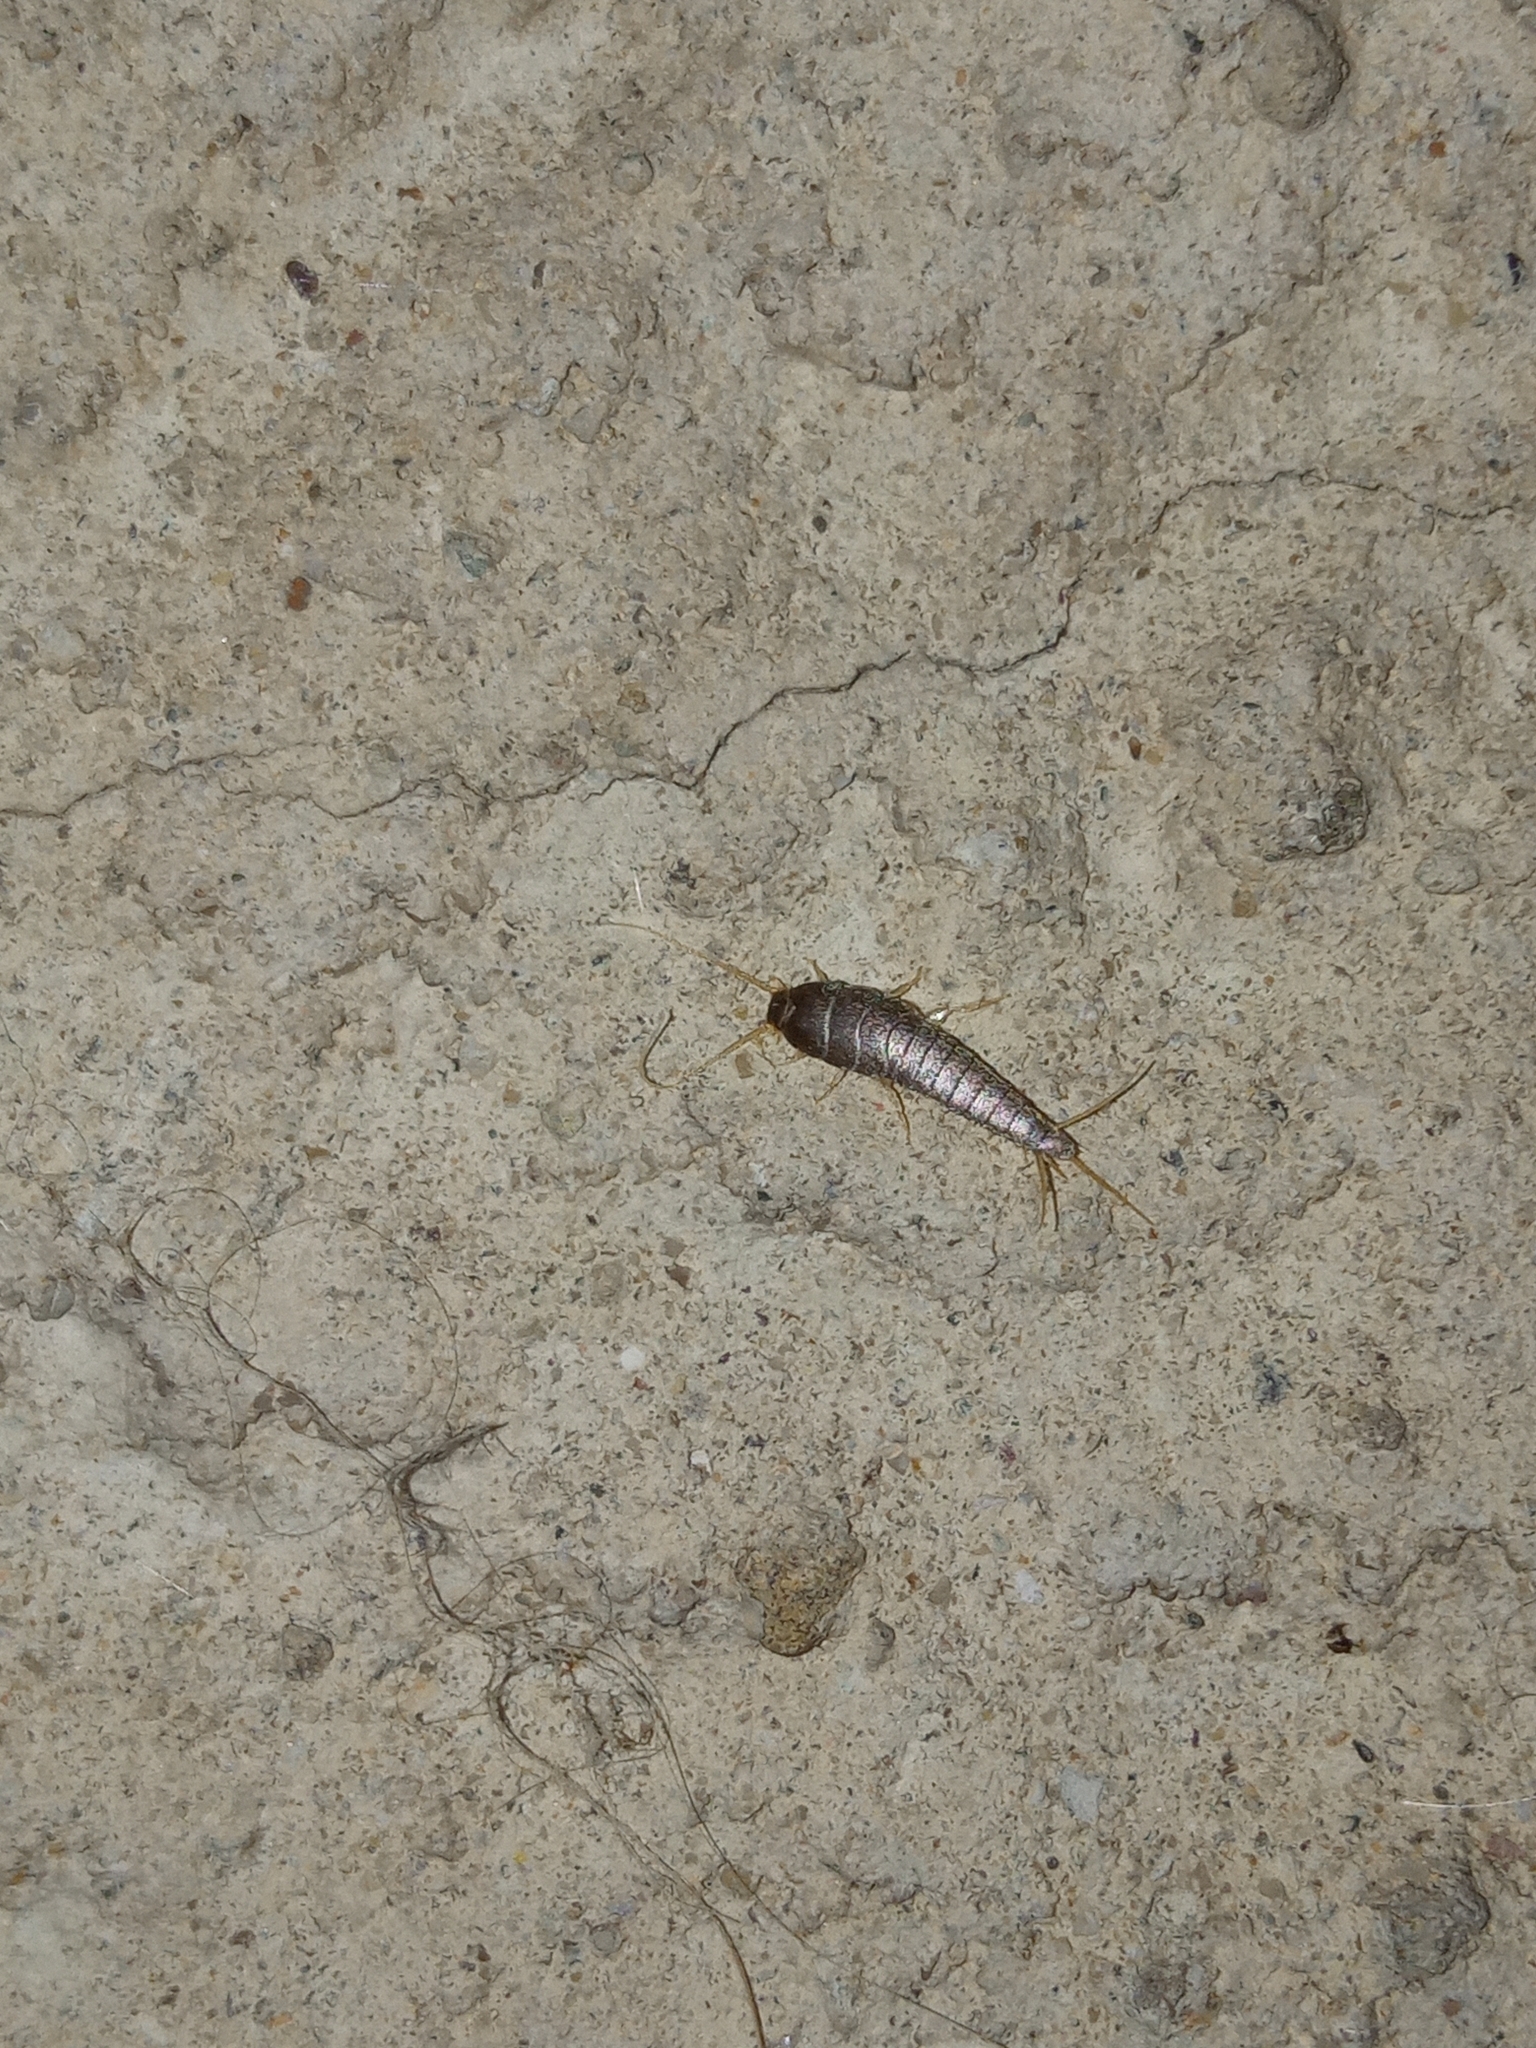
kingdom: Animalia
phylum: Arthropoda
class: Insecta
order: Zygentoma
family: Lepismatidae
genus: Lepisma
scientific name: Lepisma saccharinum
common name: Silverfish
